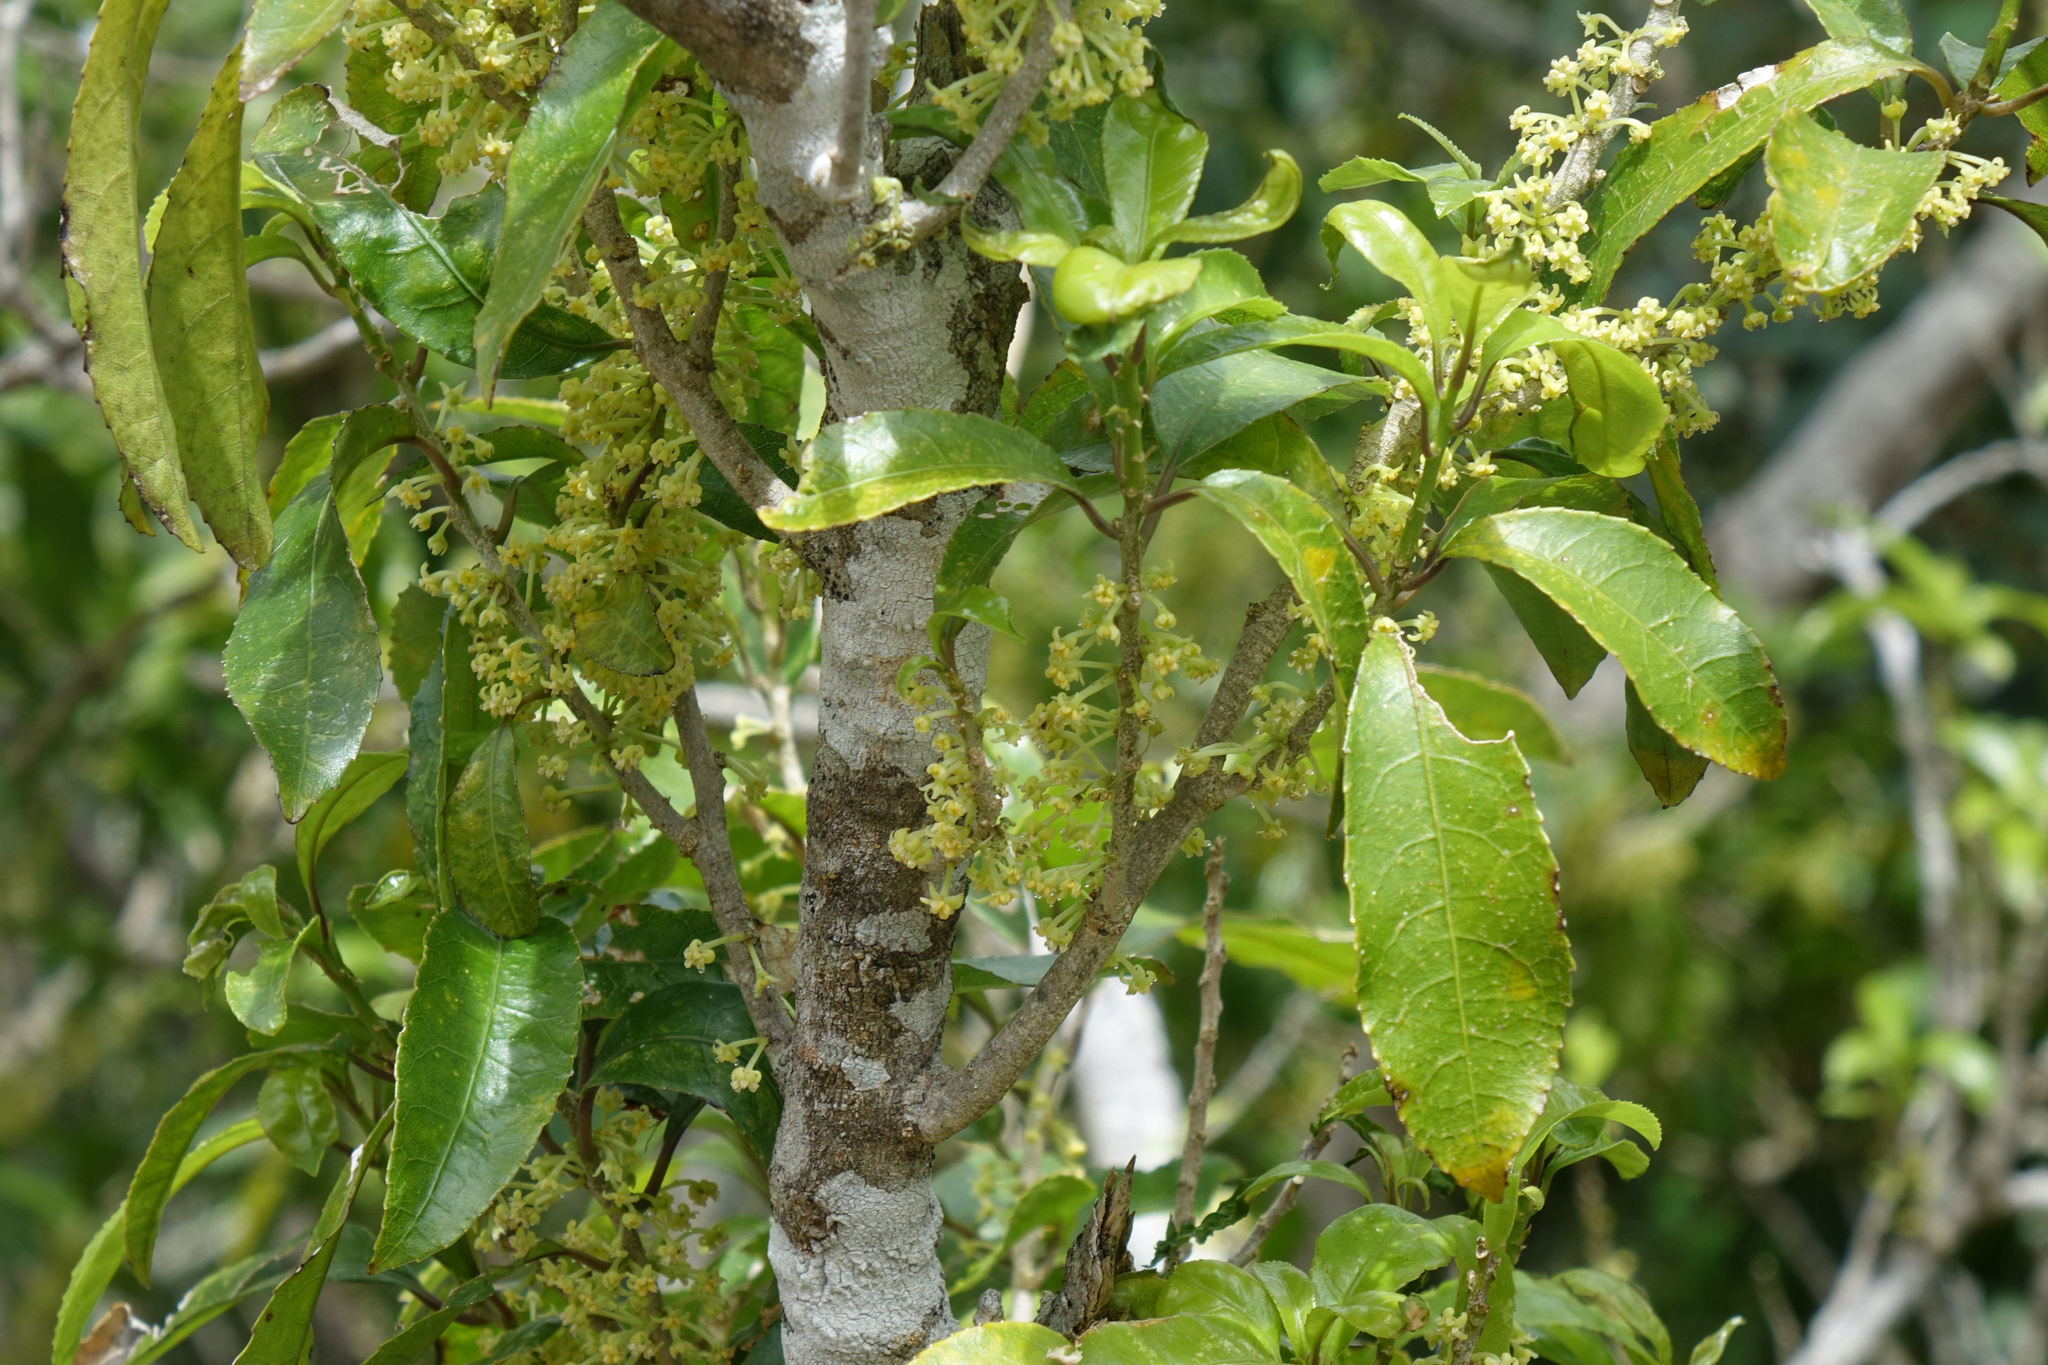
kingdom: Plantae
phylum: Tracheophyta
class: Magnoliopsida
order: Malpighiales
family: Violaceae
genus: Melicytus
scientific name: Melicytus ramiflorus
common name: Mahoe
